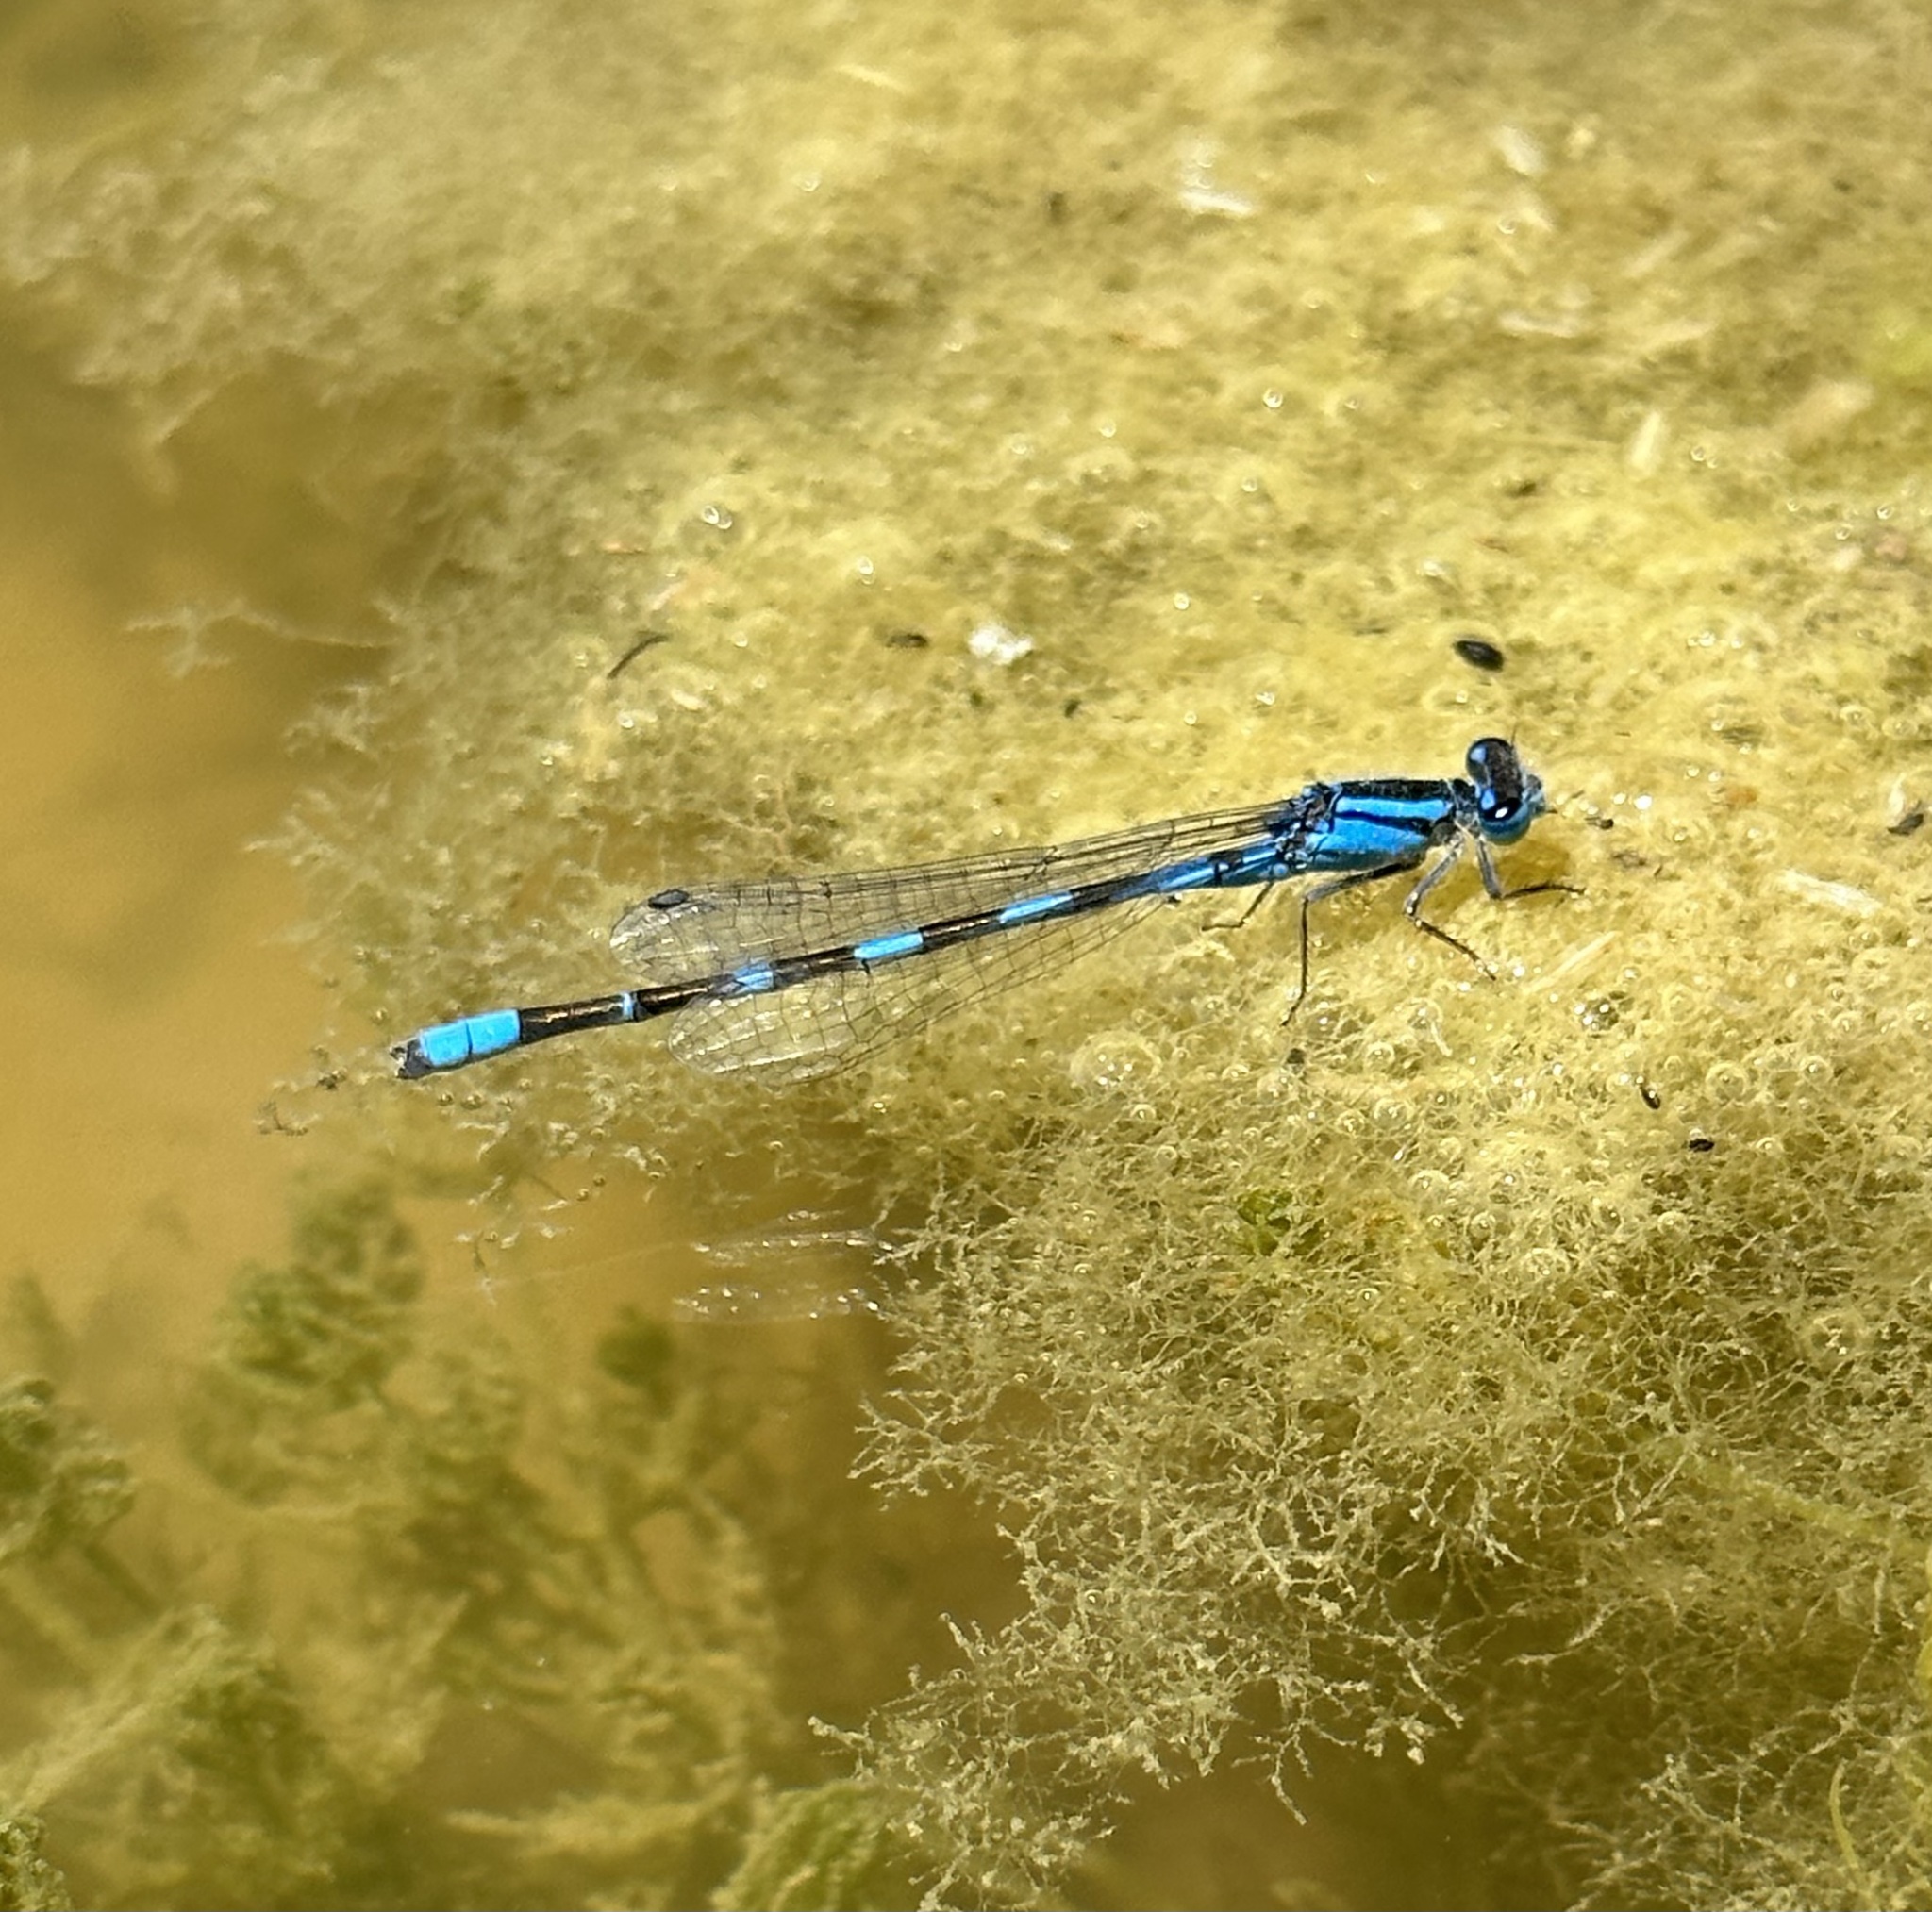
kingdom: Animalia
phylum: Arthropoda
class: Insecta
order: Odonata
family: Coenagrionidae
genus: Enallagma
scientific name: Enallagma carunculatum
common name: Tule bluet
